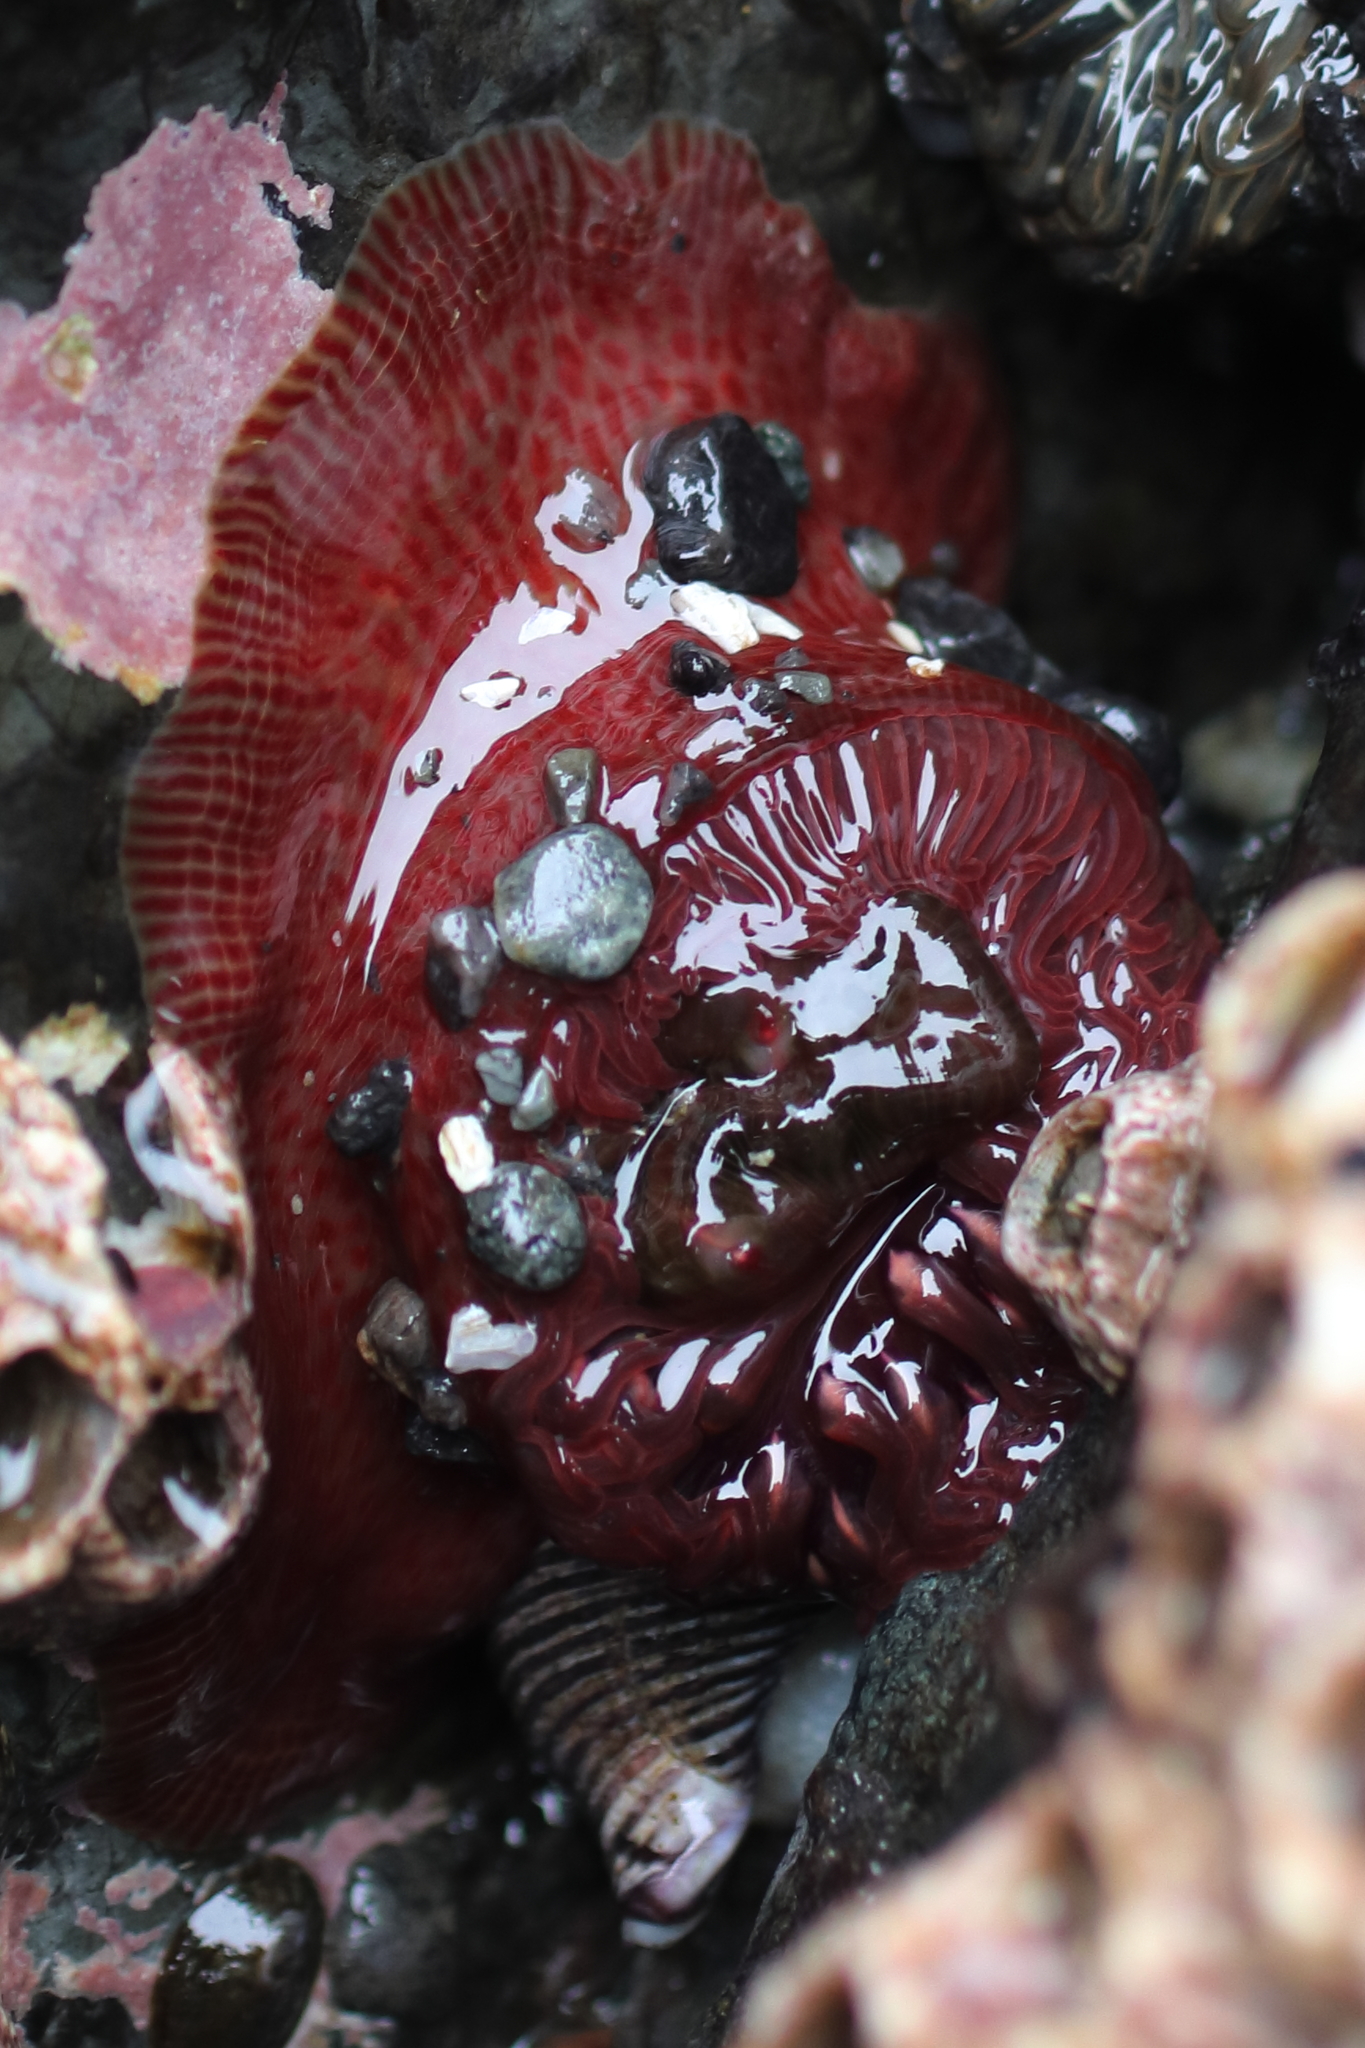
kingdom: Animalia
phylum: Cnidaria
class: Anthozoa
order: Actiniaria
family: Actiniidae
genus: Epiactis
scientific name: Epiactis lisbethae
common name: Giant brooding anemone
